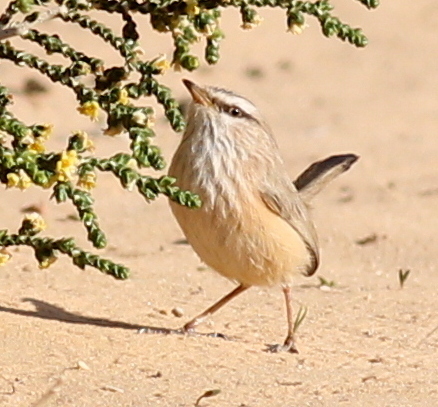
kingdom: Animalia
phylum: Chordata
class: Aves
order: Passeriformes
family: Scotocercidae
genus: Scotocerca
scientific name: Scotocerca inquieta
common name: Scrub warbler
